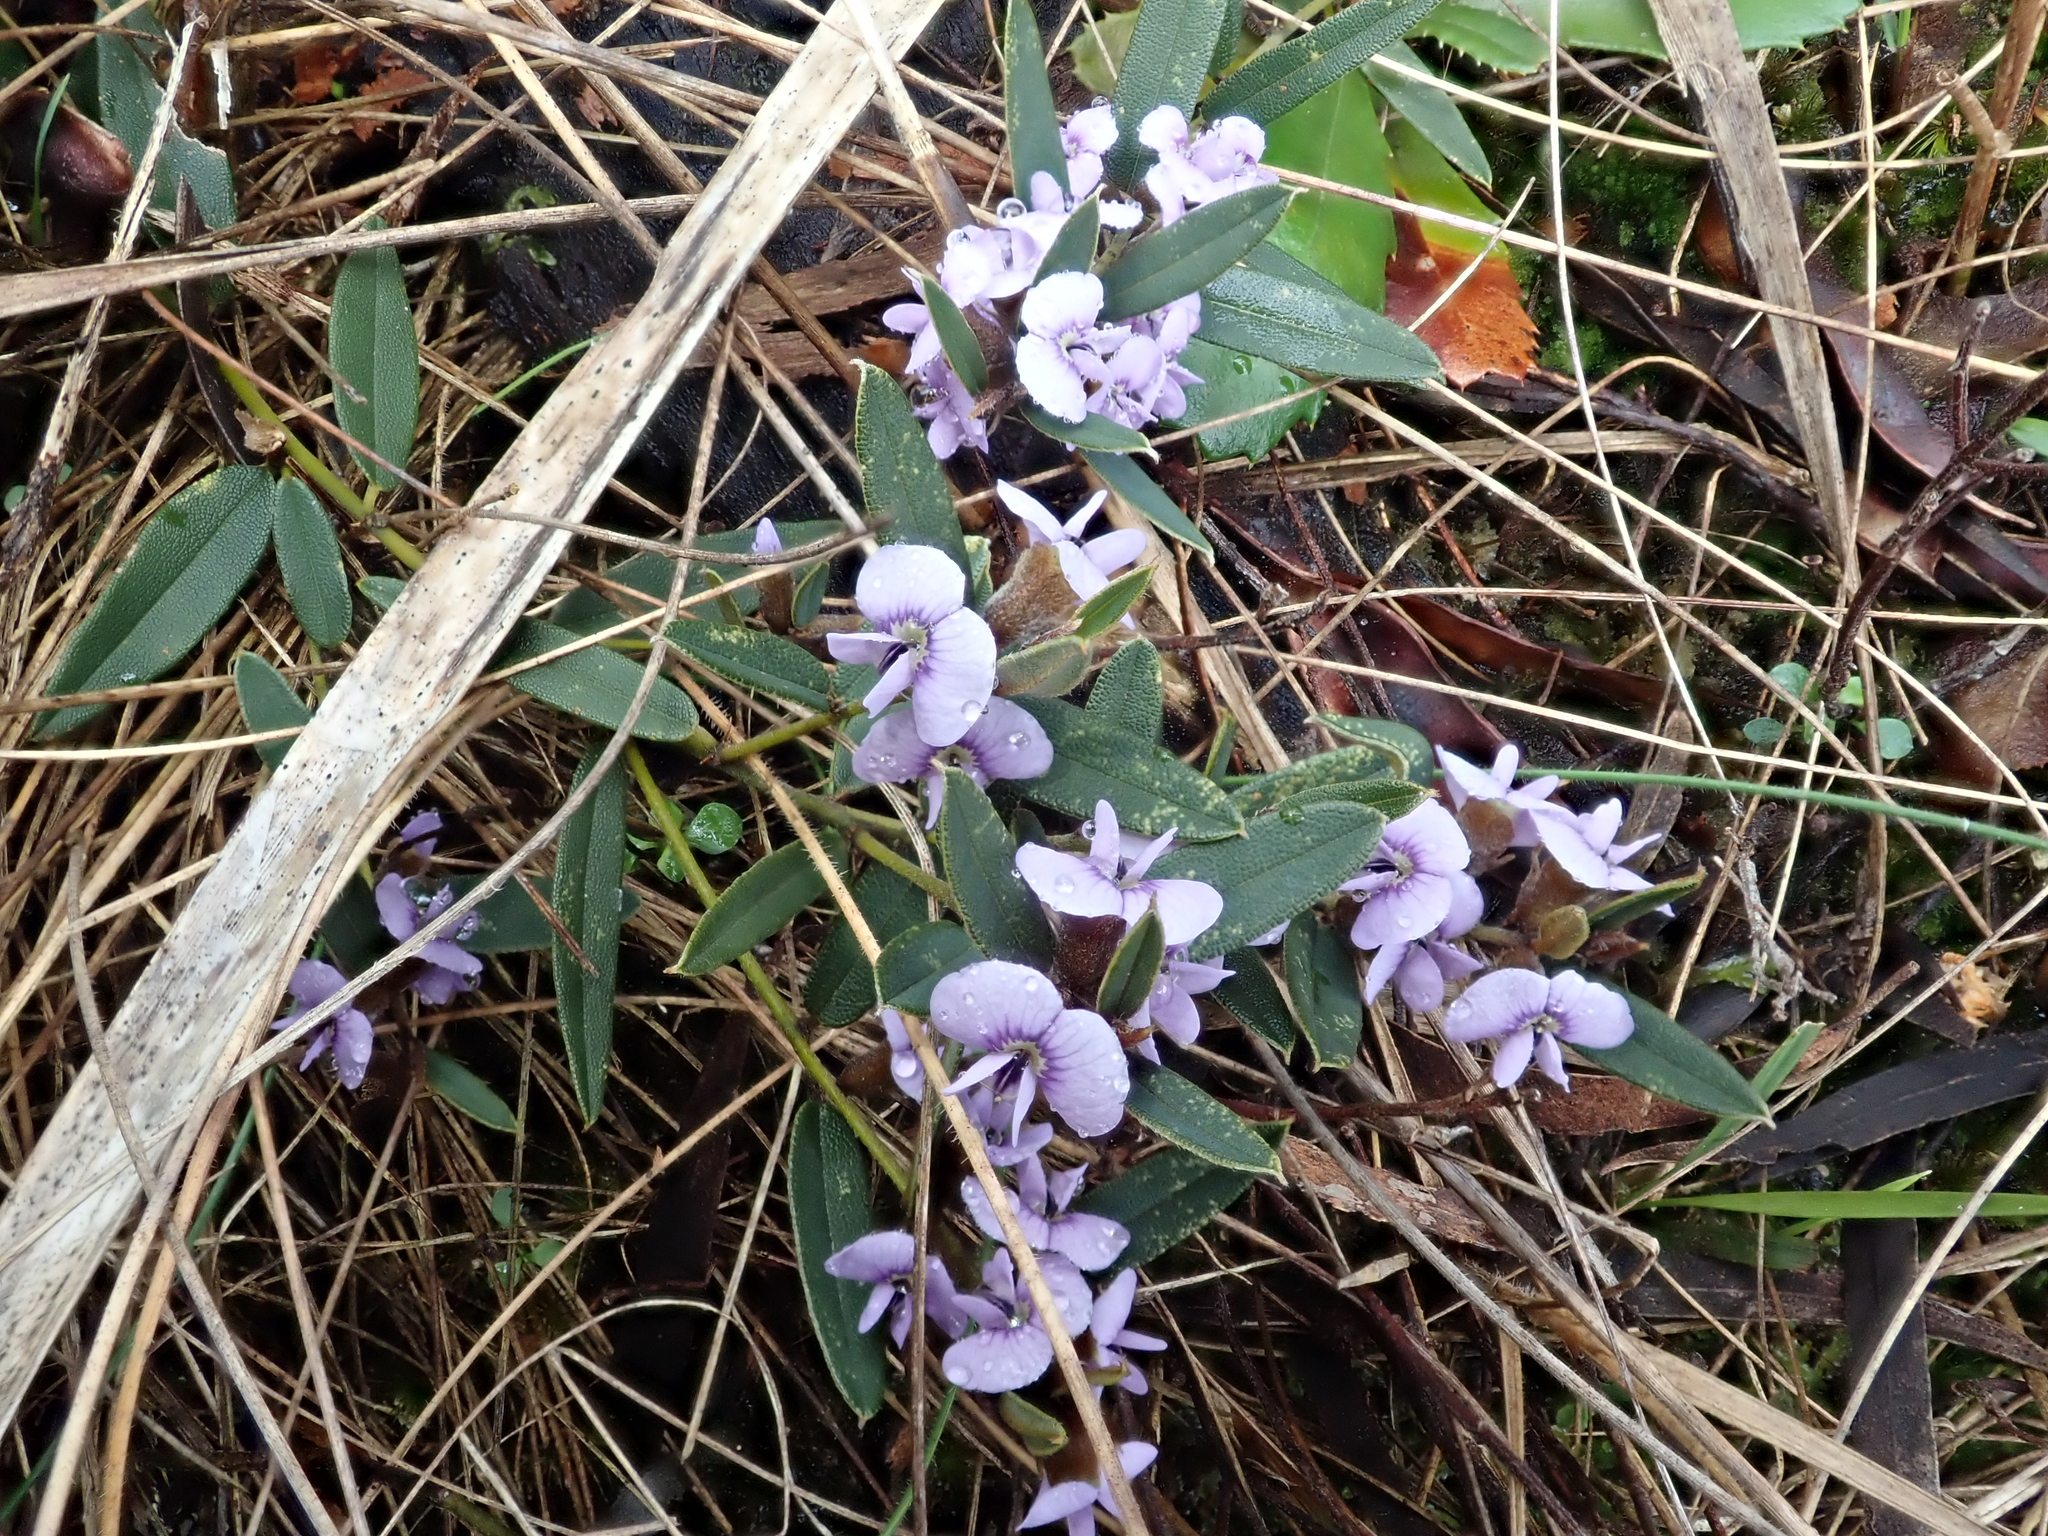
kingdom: Plantae
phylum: Tracheophyta
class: Magnoliopsida
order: Fabales
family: Fabaceae
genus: Hovea
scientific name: Hovea heterophylla
